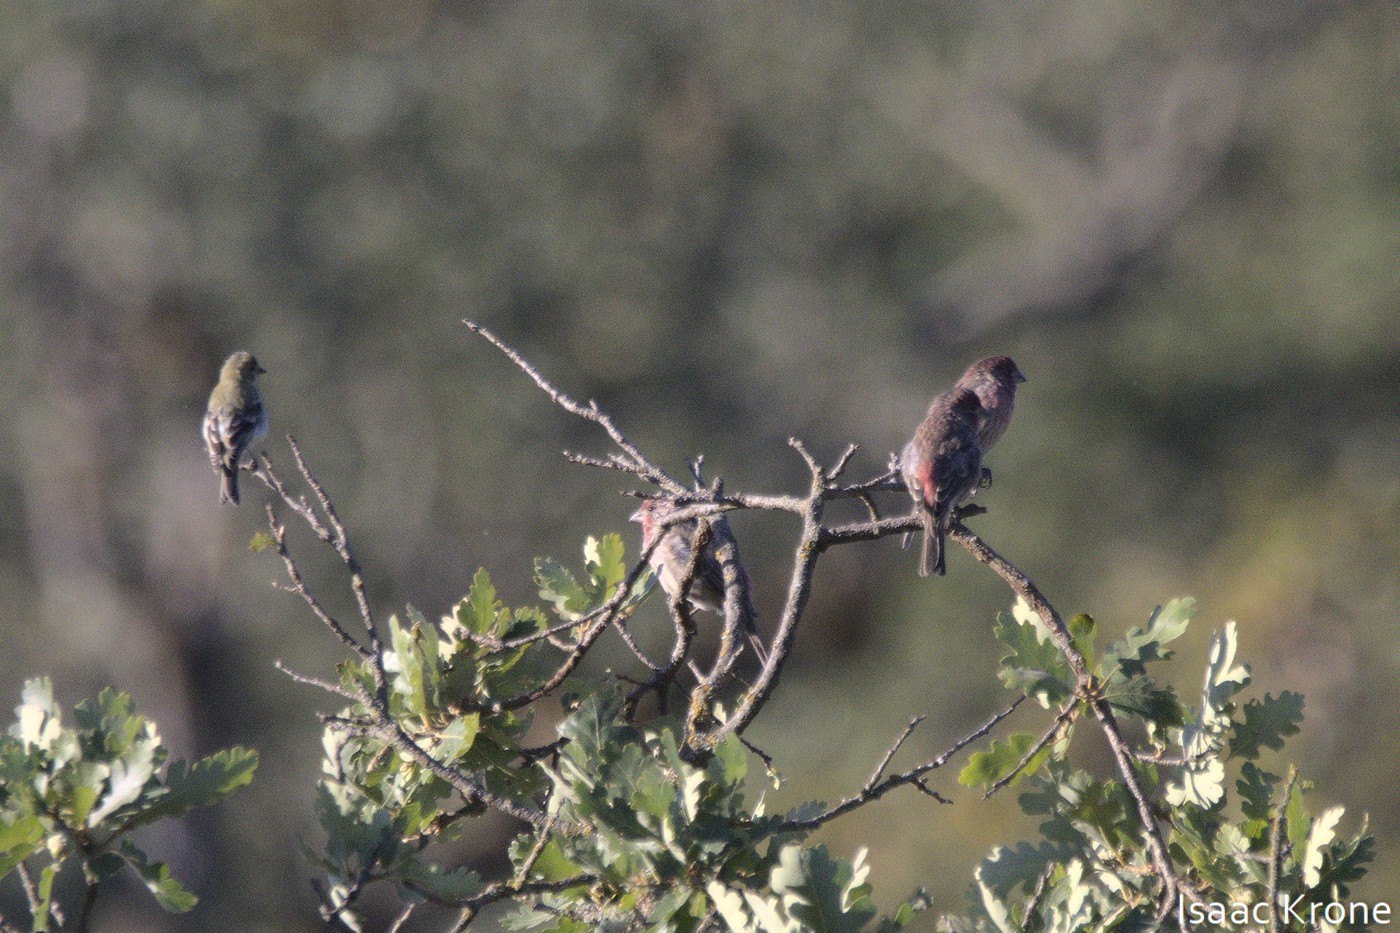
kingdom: Animalia
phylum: Chordata
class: Aves
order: Passeriformes
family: Fringillidae
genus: Haemorhous
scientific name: Haemorhous mexicanus
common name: House finch
